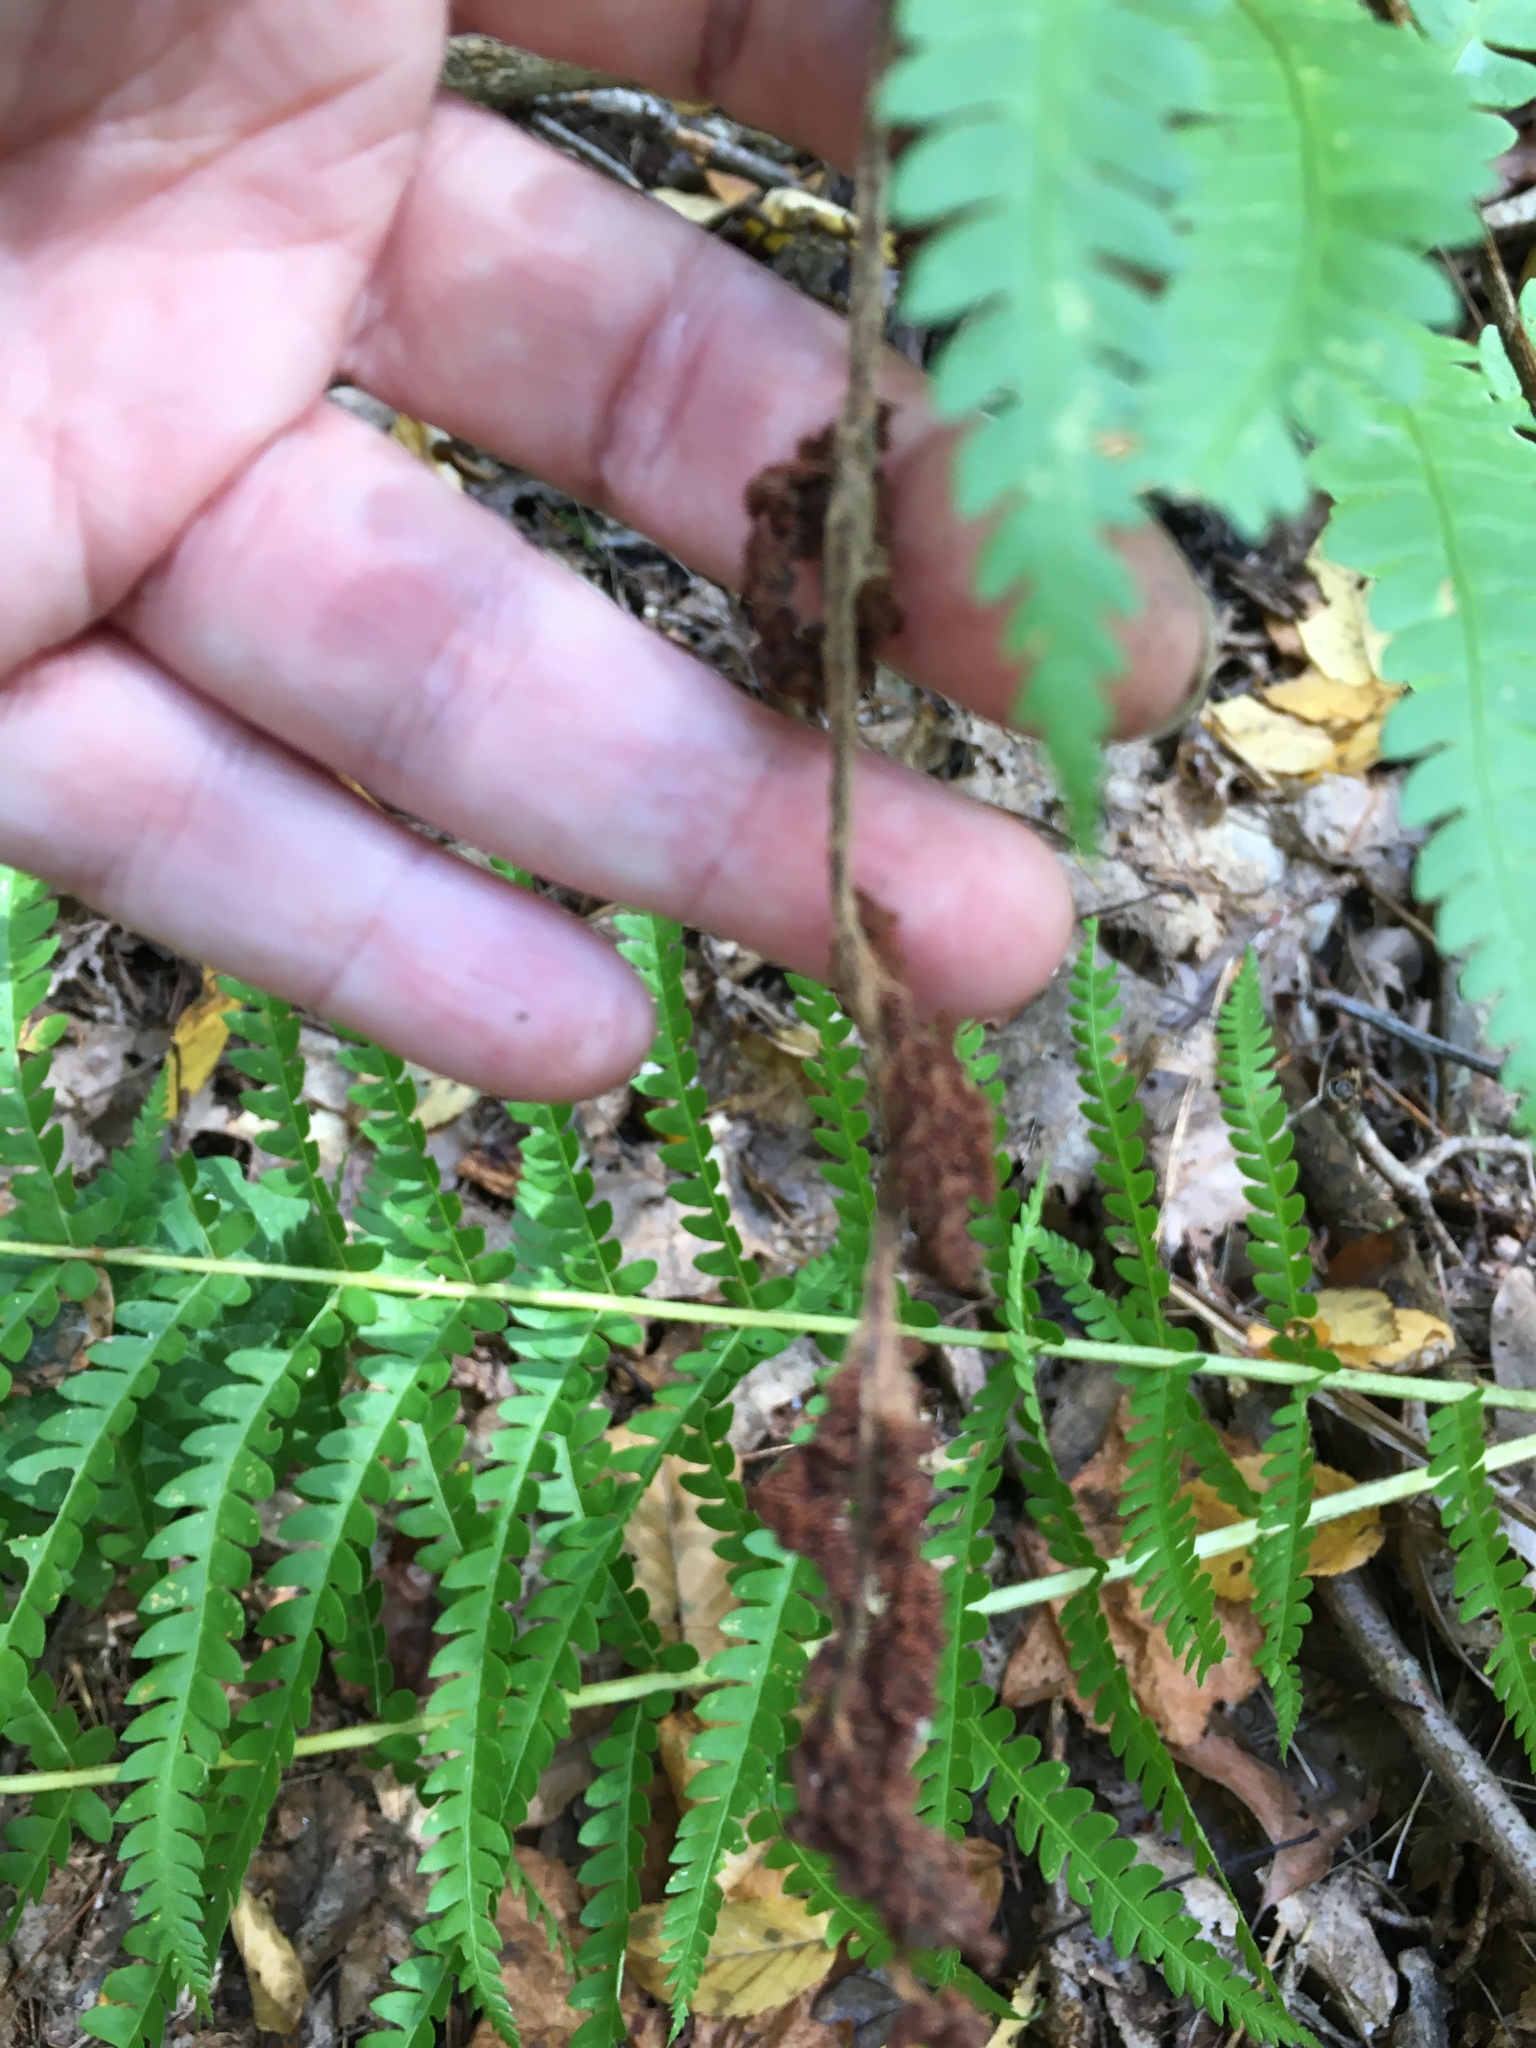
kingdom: Plantae
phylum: Tracheophyta
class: Polypodiopsida
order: Osmundales
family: Osmundaceae
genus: Osmundastrum
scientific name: Osmundastrum cinnamomeum
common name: Cinnamon fern
